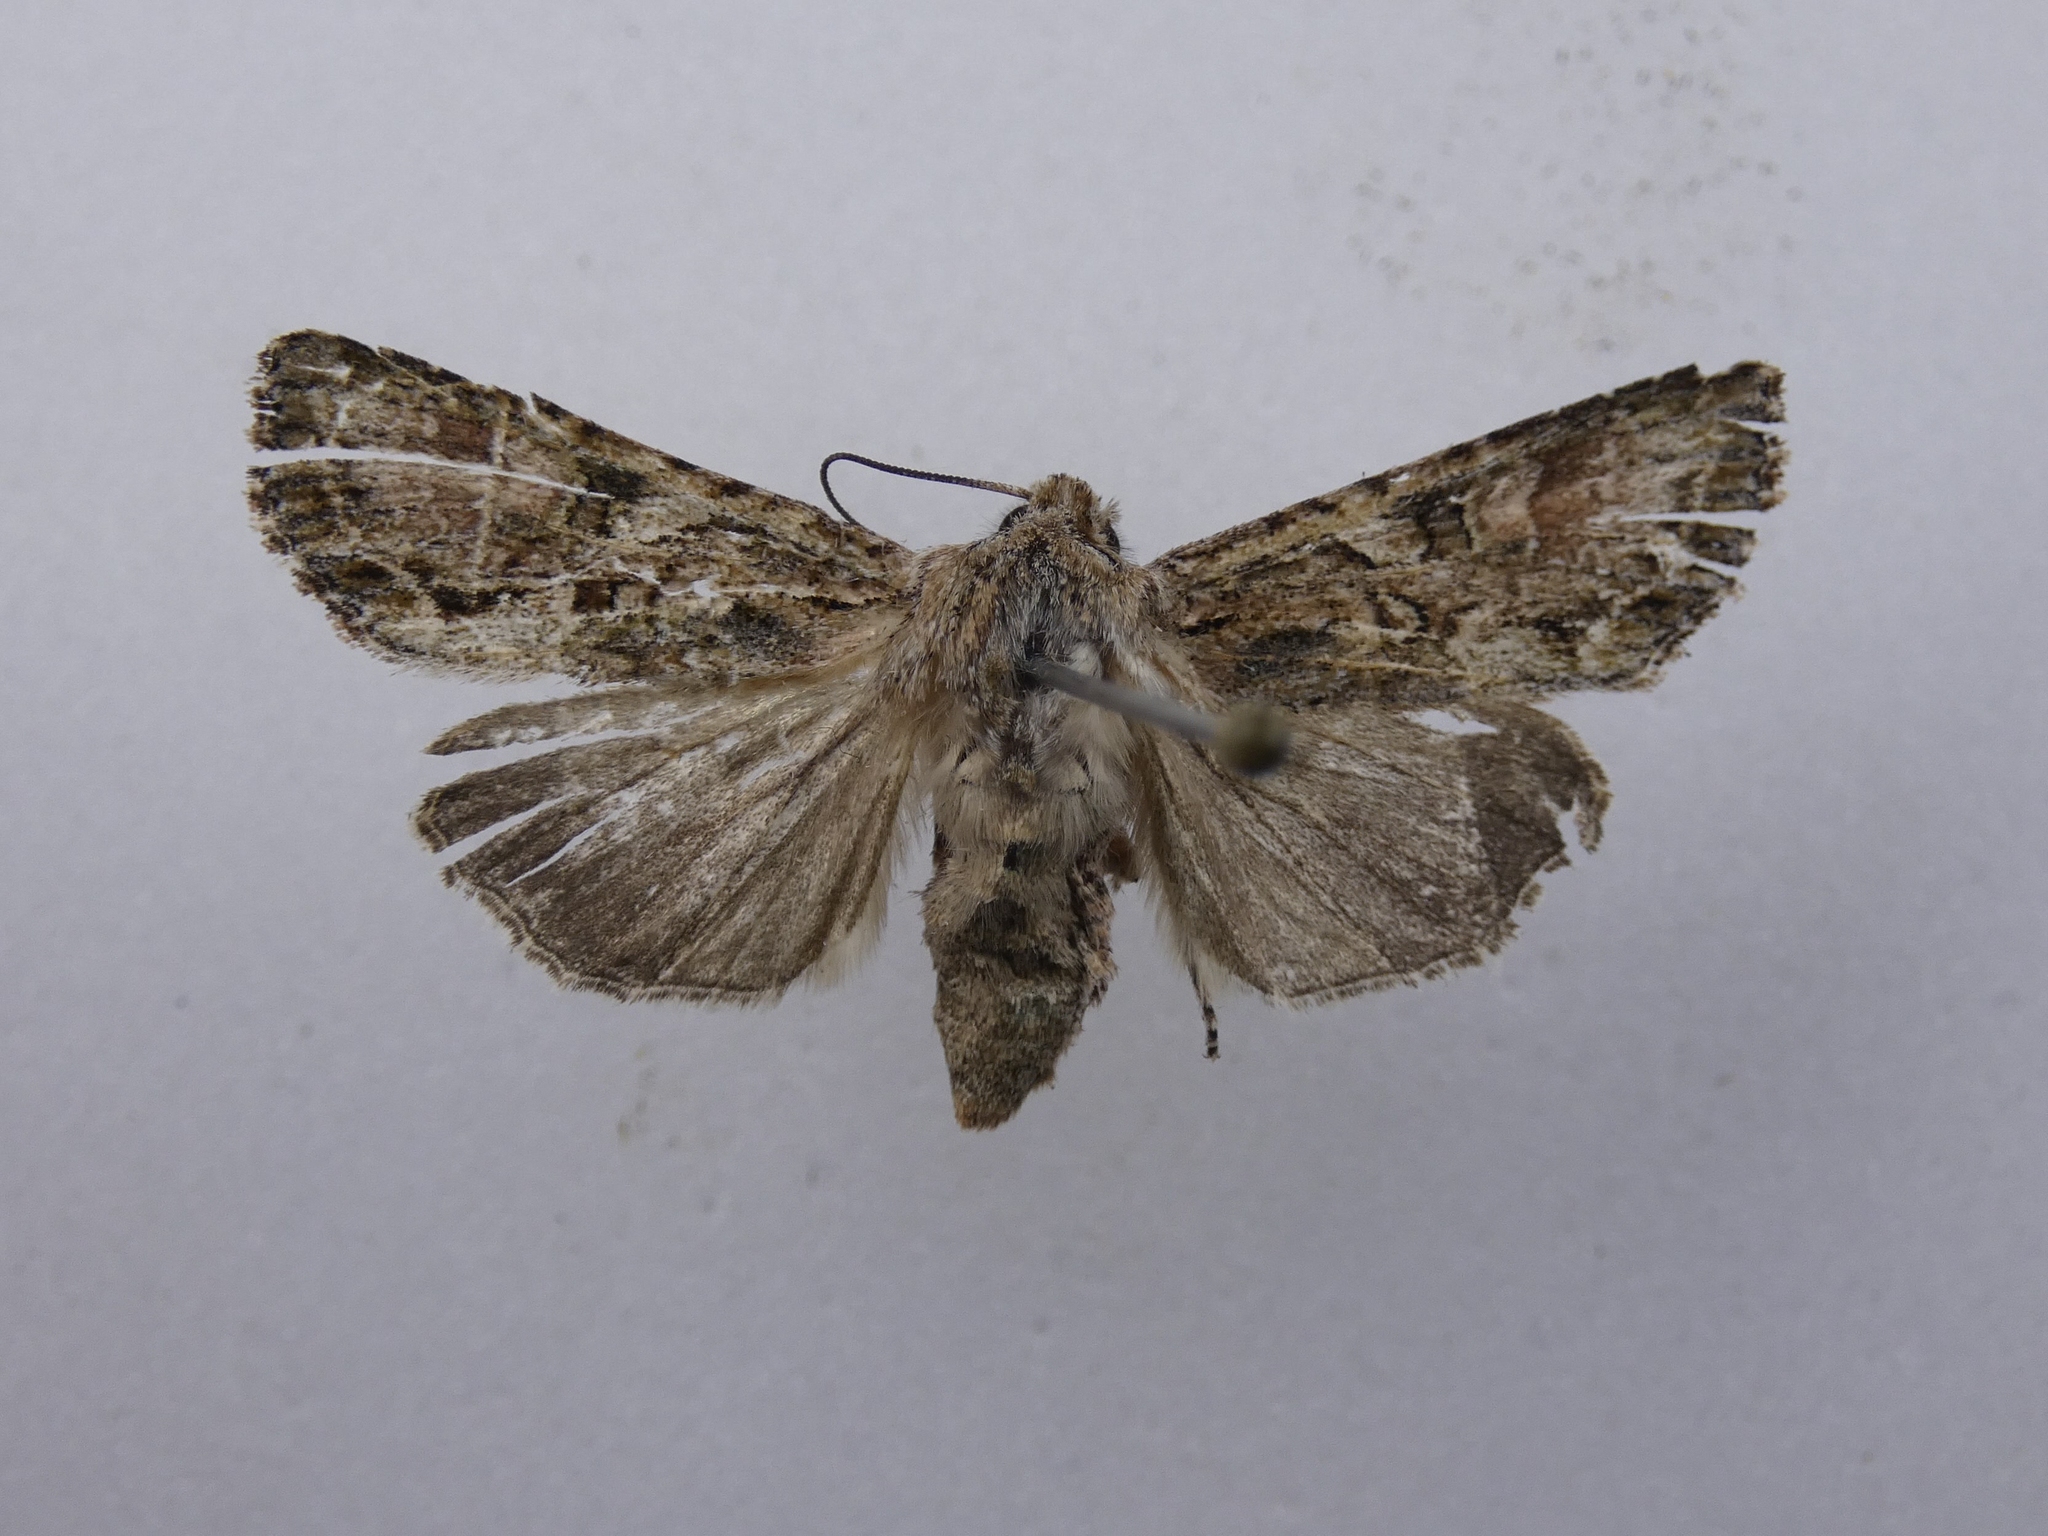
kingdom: Animalia
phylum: Arthropoda
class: Insecta
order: Lepidoptera
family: Noctuidae
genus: Ichneutica
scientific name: Ichneutica mutans
